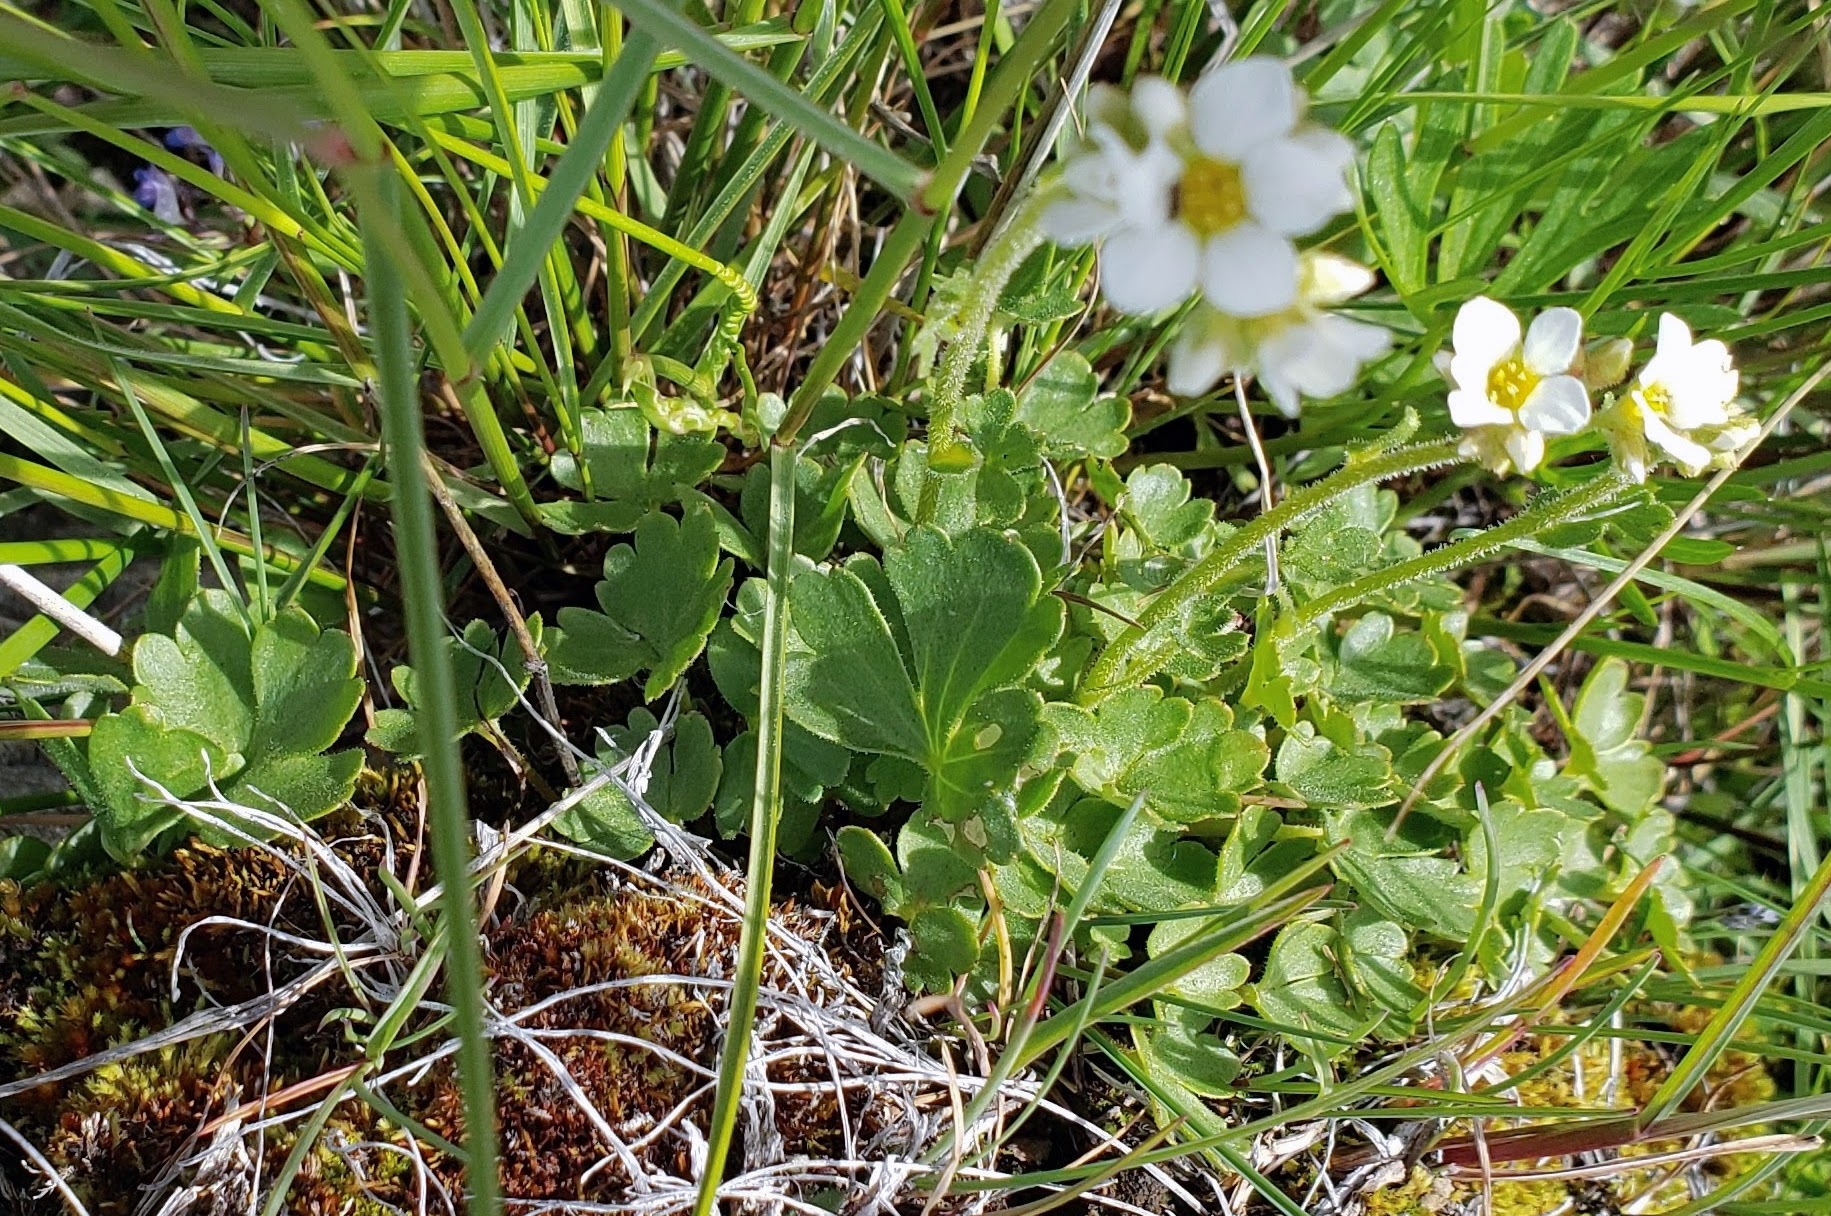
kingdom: Plantae
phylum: Tracheophyta
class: Magnoliopsida
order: Saxifragales
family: Saxifragaceae
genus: Hemieva
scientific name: Hemieva ranunculifolia
